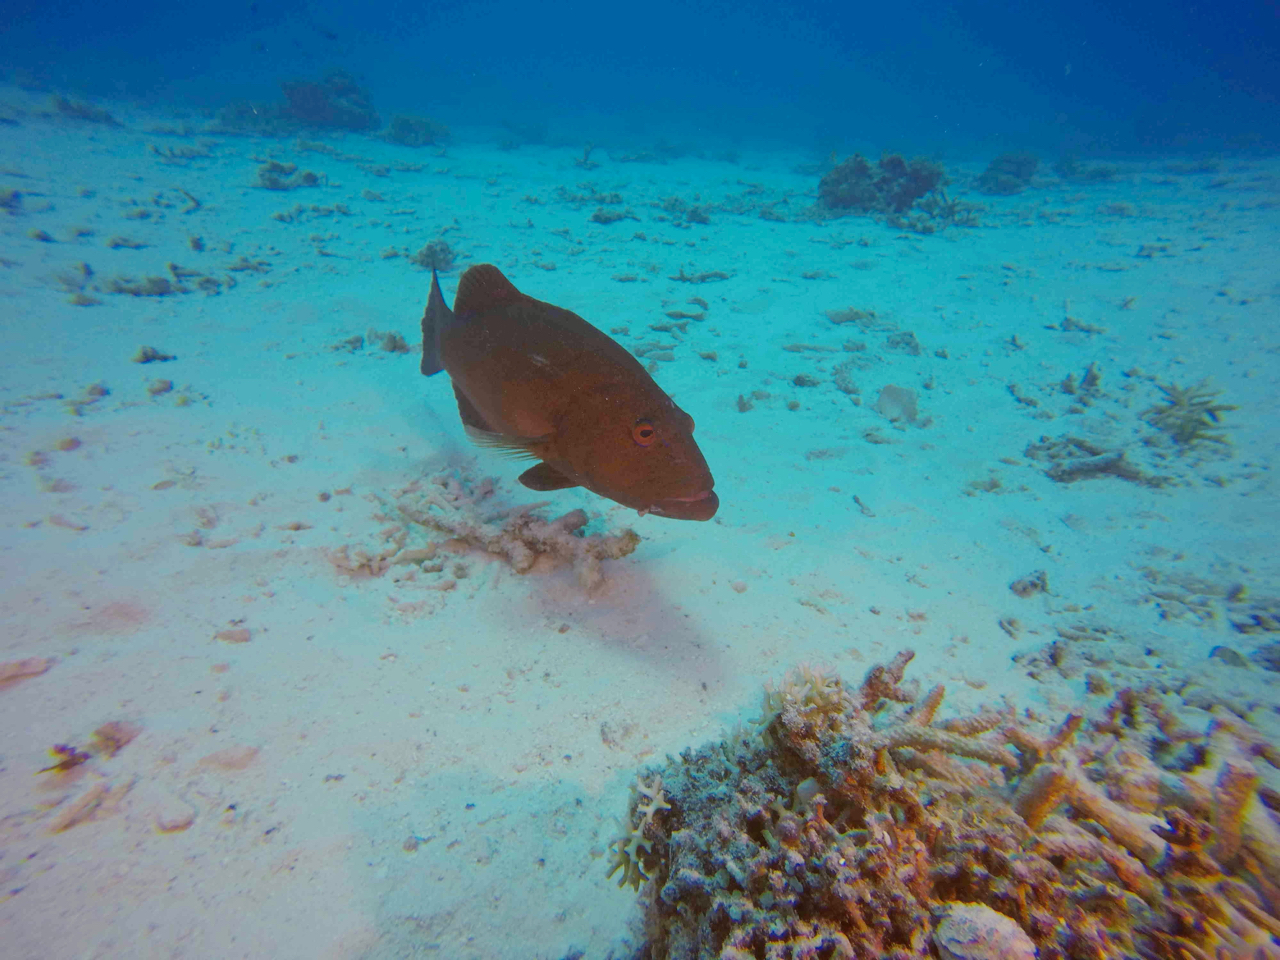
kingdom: Animalia
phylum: Chordata
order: Perciformes
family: Serranidae
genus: Plectropomus
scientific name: Plectropomus leopardus
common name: Coral trout
